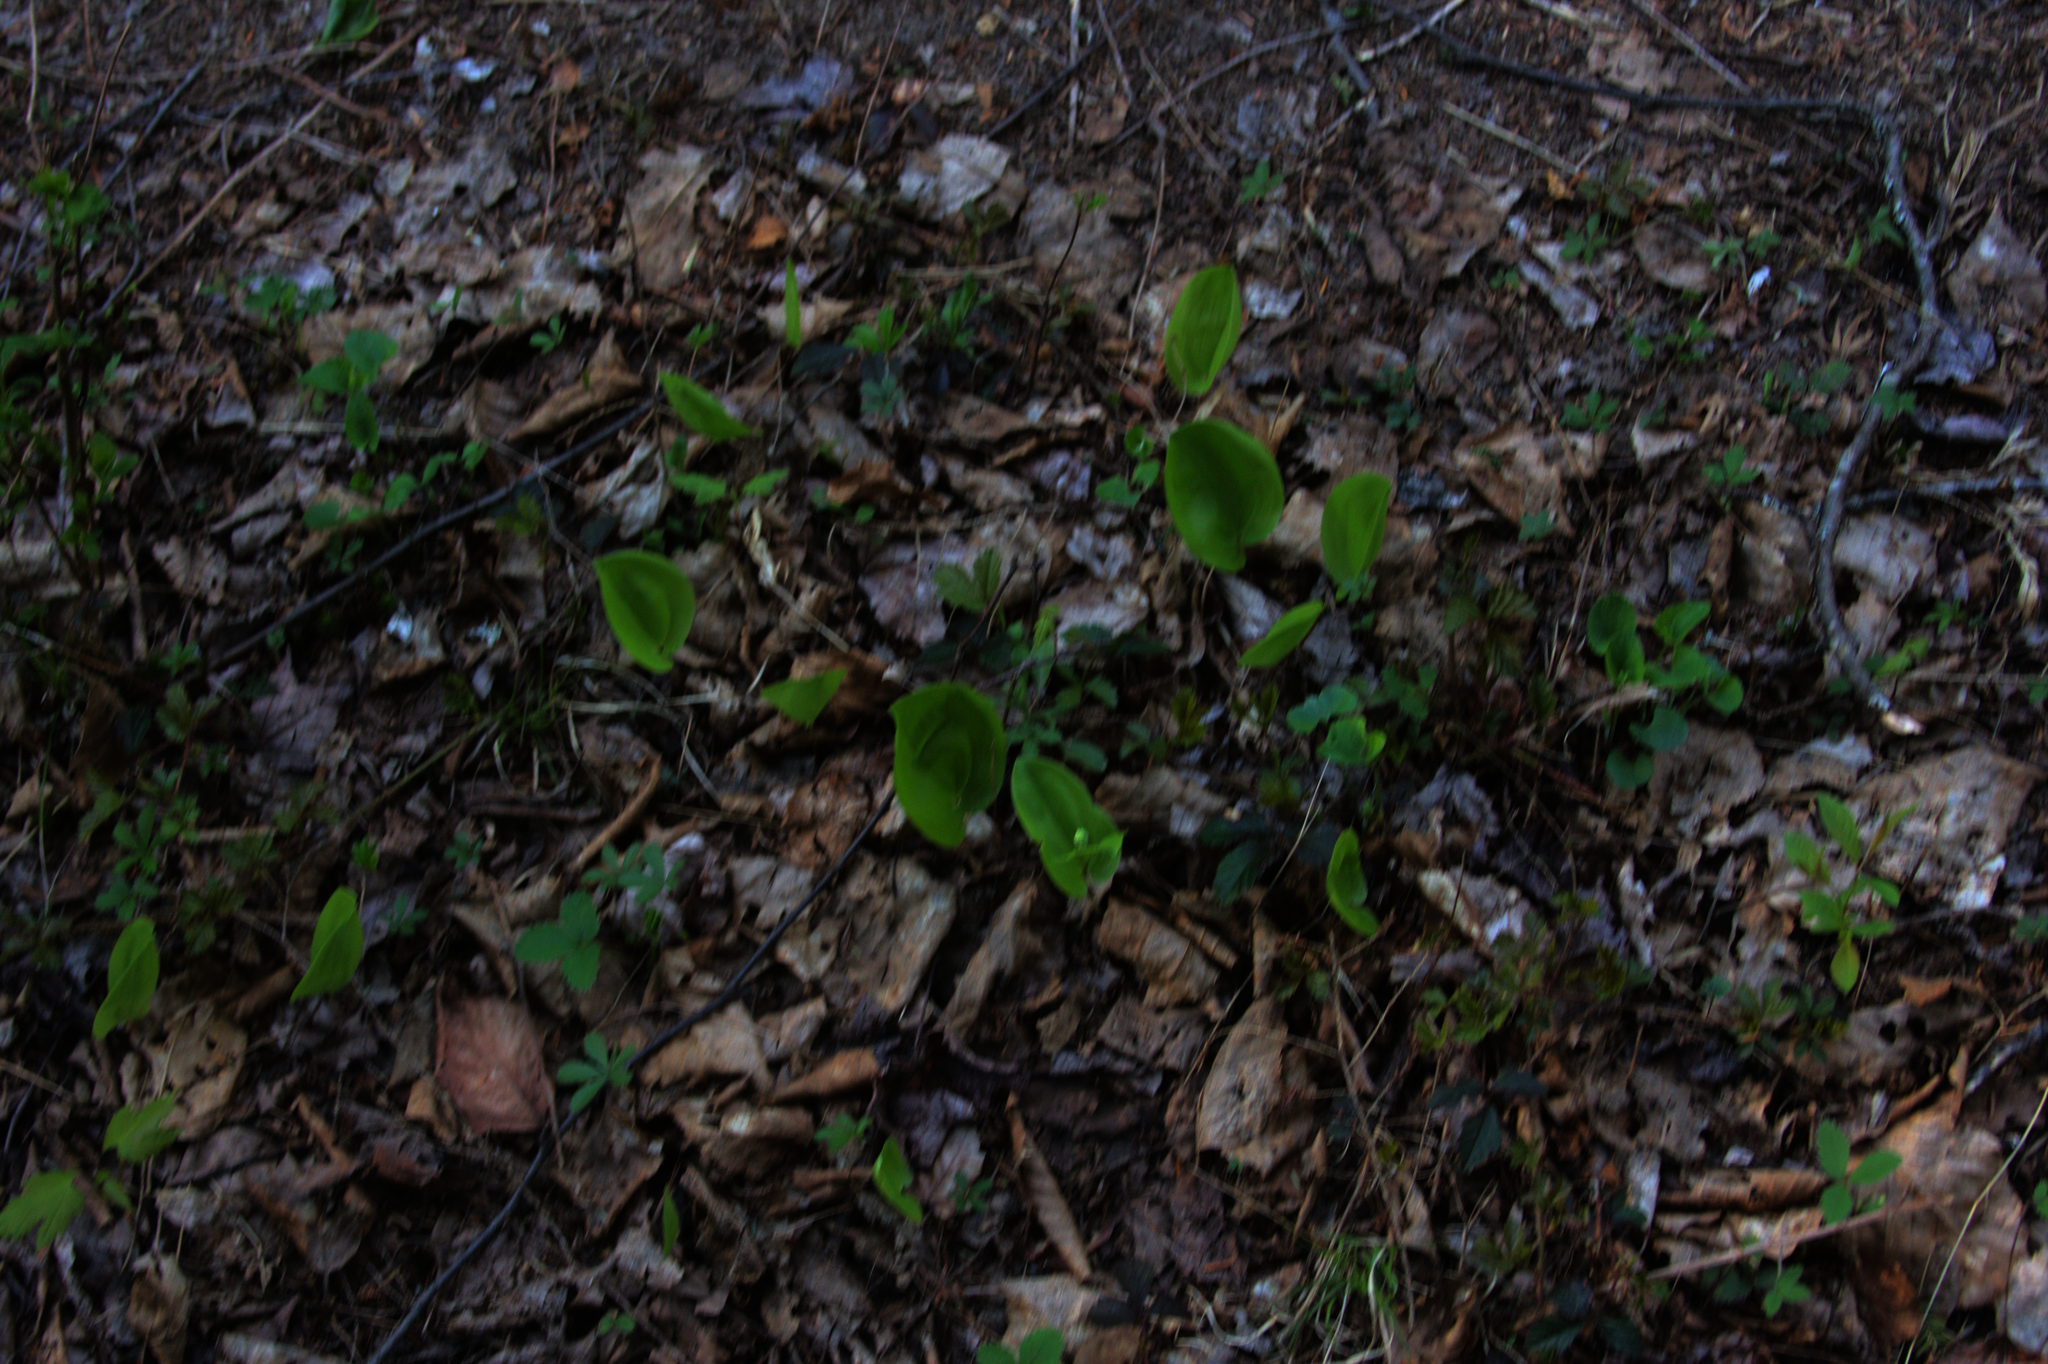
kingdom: Plantae
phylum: Tracheophyta
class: Liliopsida
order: Asparagales
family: Asparagaceae
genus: Maianthemum
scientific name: Maianthemum canadense
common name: False lily-of-the-valley
